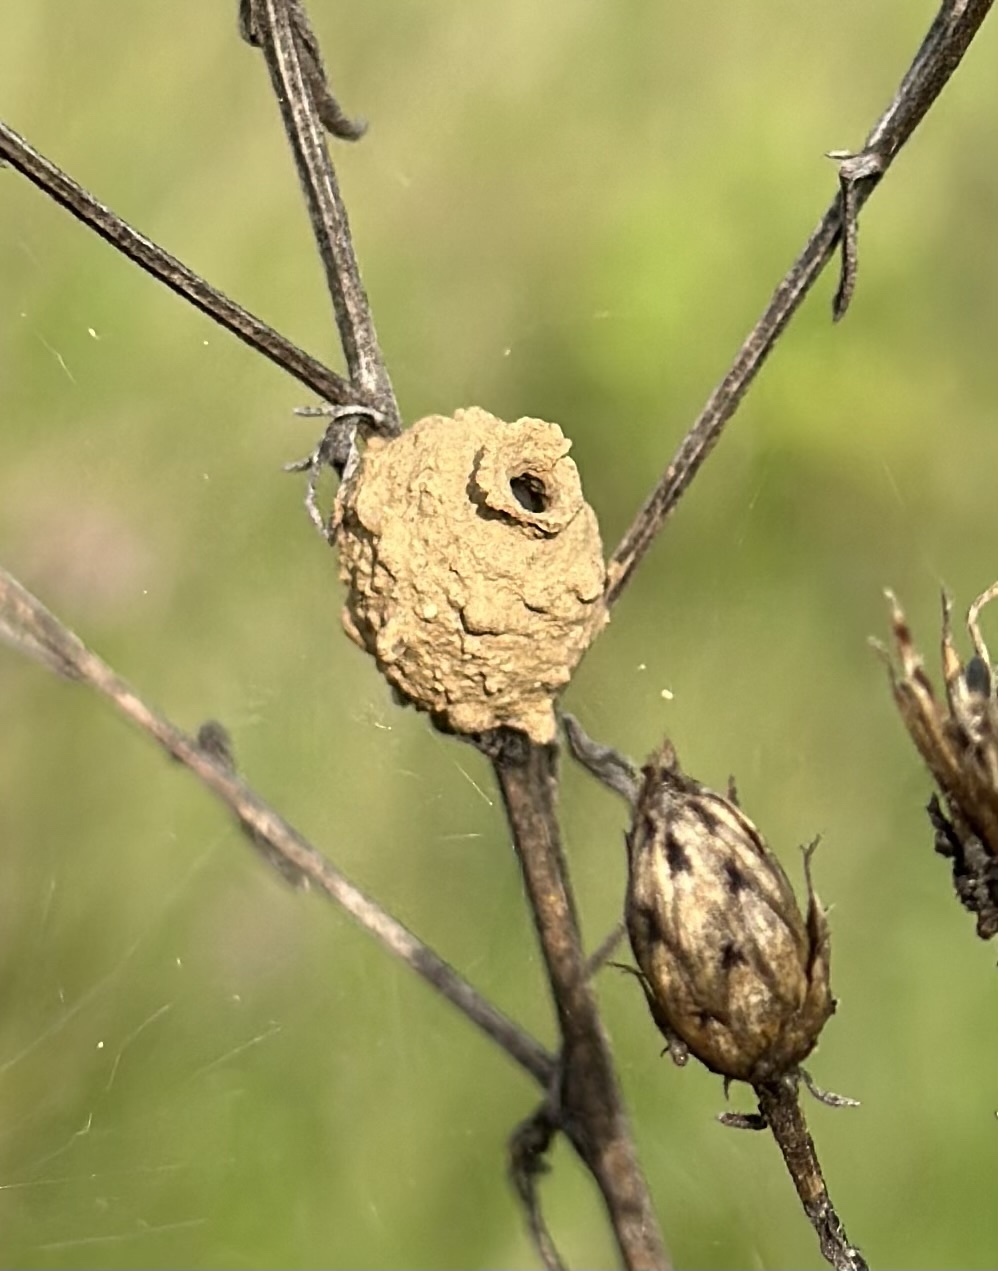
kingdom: Animalia
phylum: Arthropoda
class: Insecta
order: Hymenoptera
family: Vespidae
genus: Eumenes
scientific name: Eumenes
